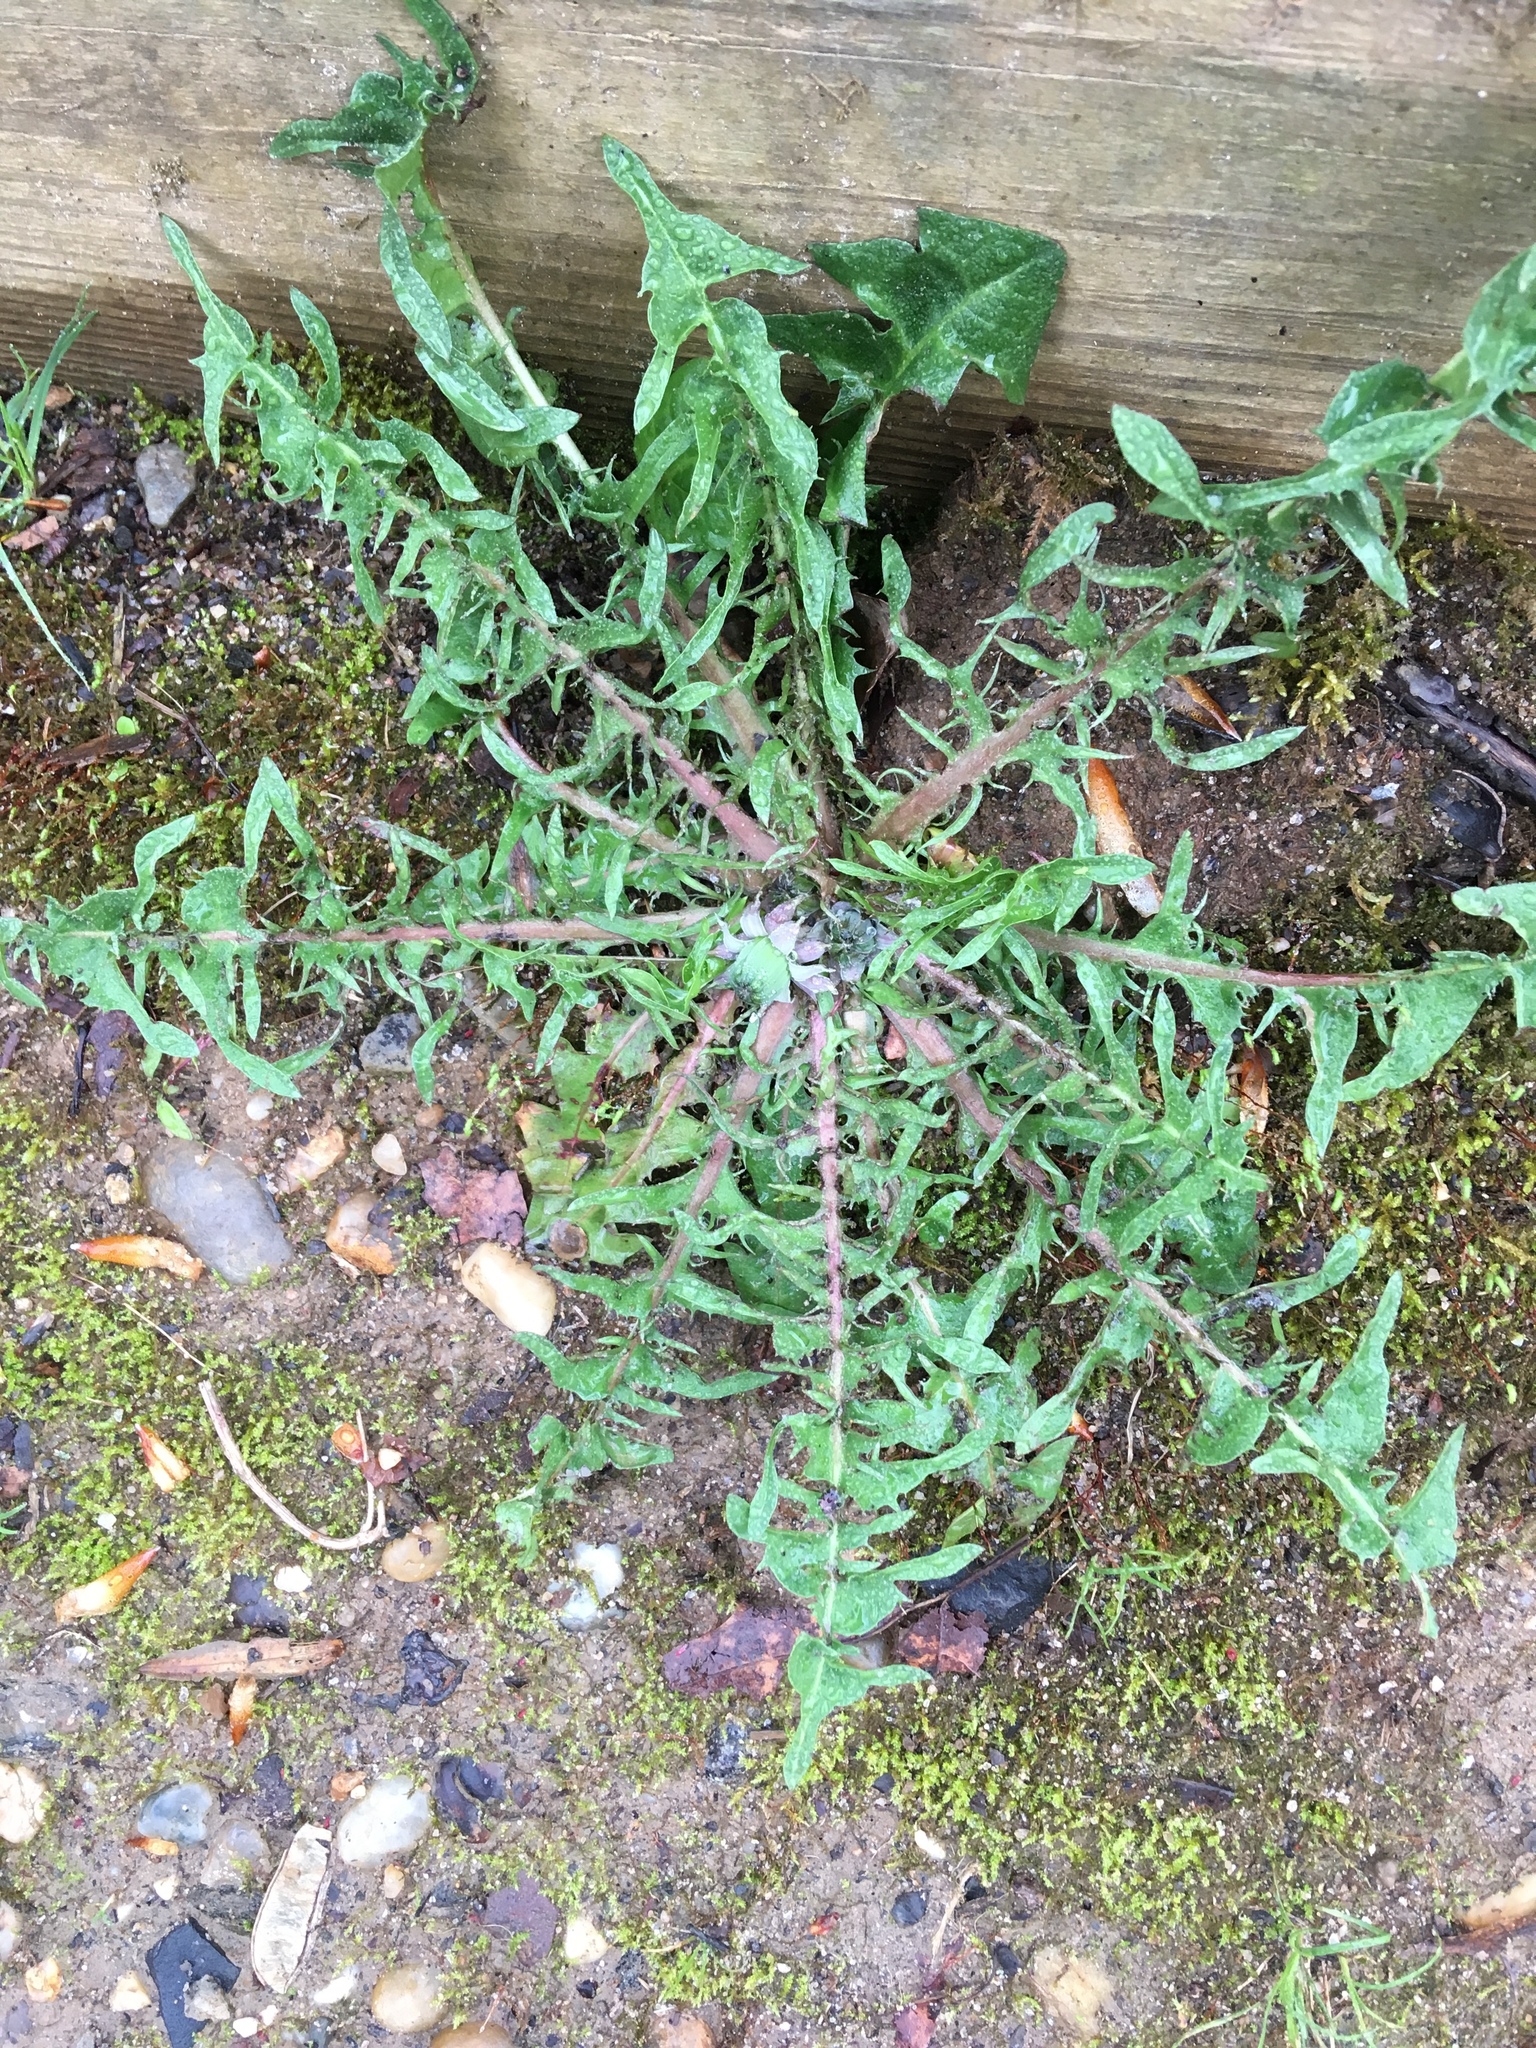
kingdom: Plantae
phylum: Tracheophyta
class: Magnoliopsida
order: Asterales
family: Asteraceae
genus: Taraxacum
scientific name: Taraxacum officinale
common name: Common dandelion
